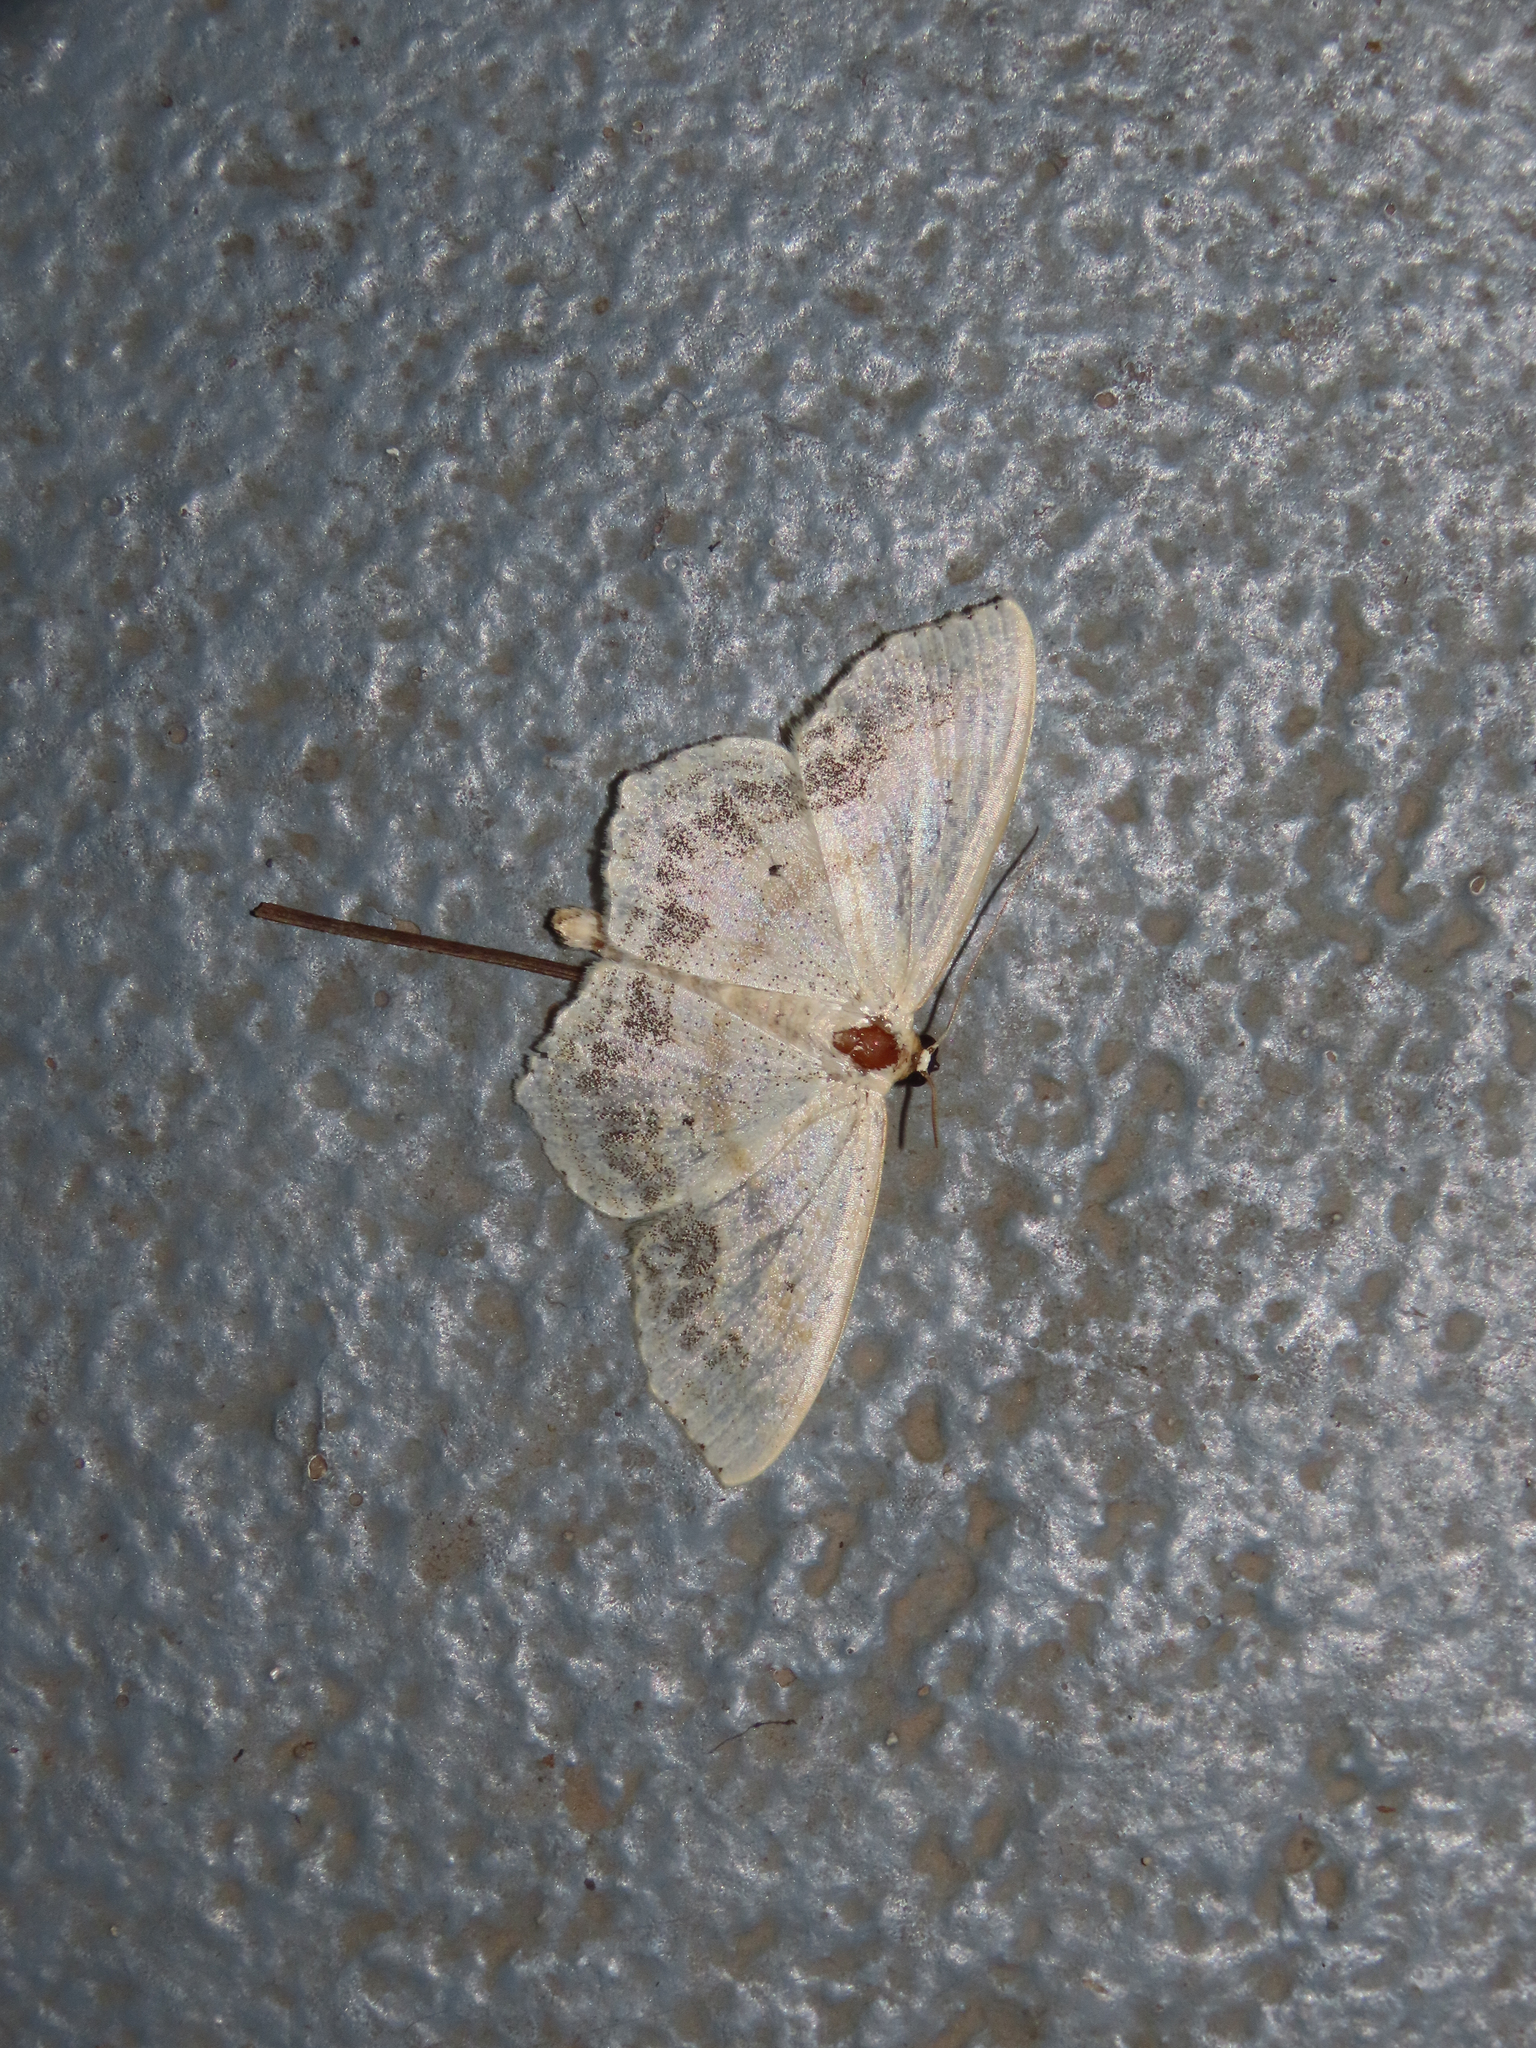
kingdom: Animalia
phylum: Arthropoda
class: Insecta
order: Lepidoptera
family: Geometridae
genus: Scopula
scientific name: Scopula limboundata
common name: Large lace border
